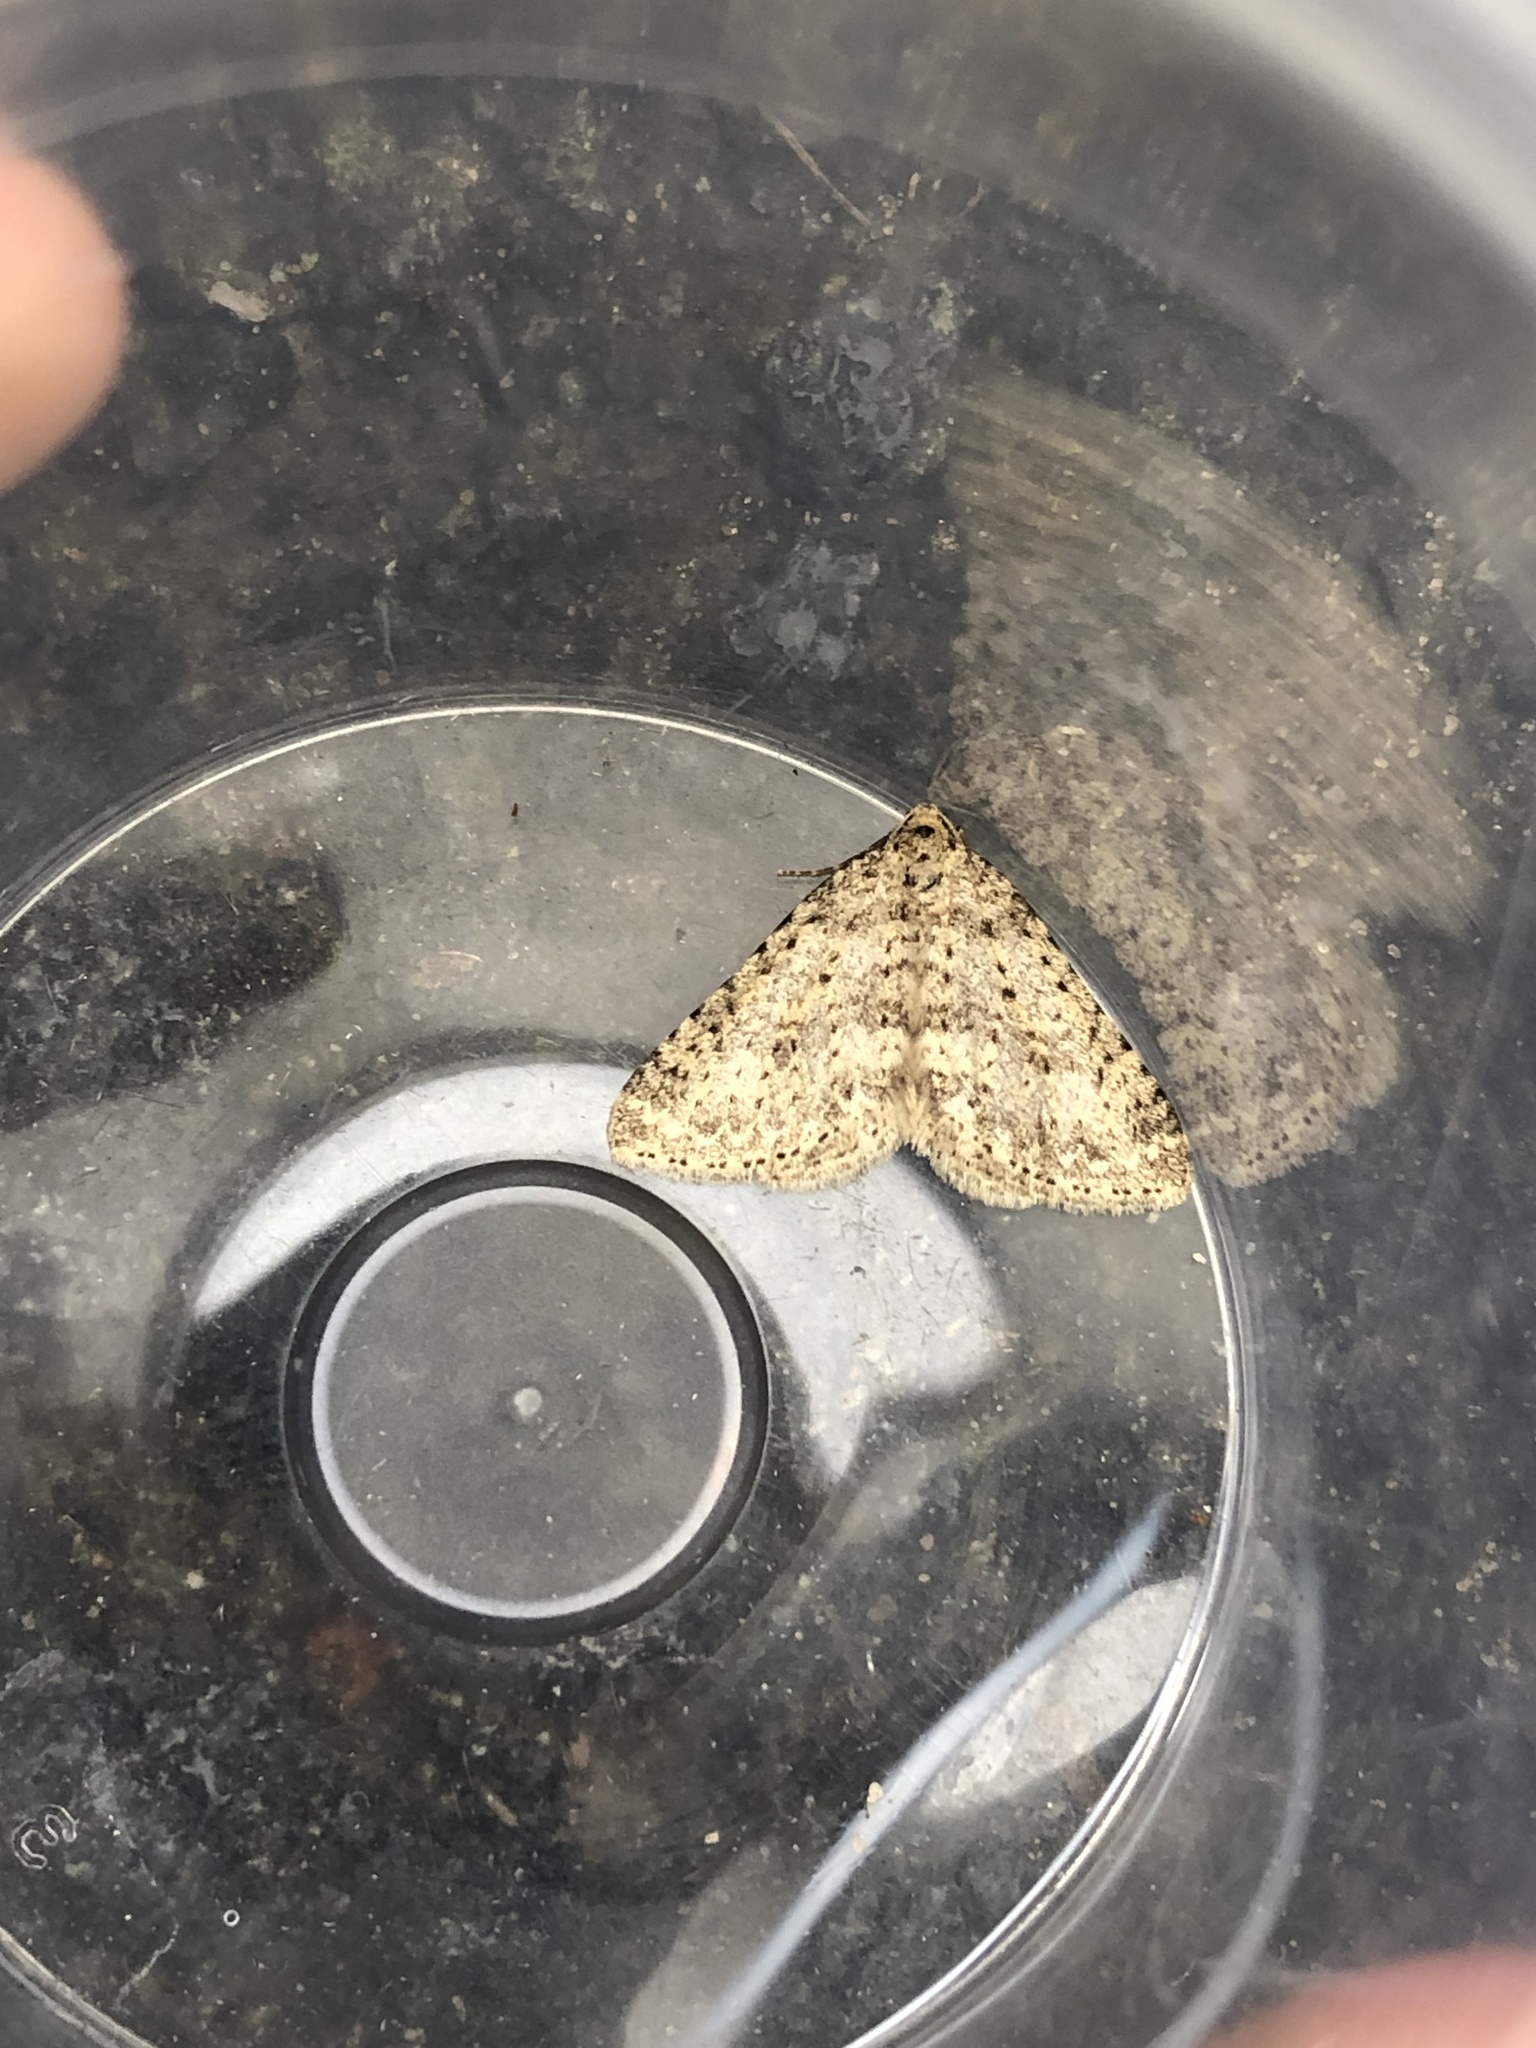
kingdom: Animalia
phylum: Arthropoda
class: Insecta
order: Lepidoptera
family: Geometridae
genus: Colostygia
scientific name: Colostygia multistrigaria
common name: Mottled grey
